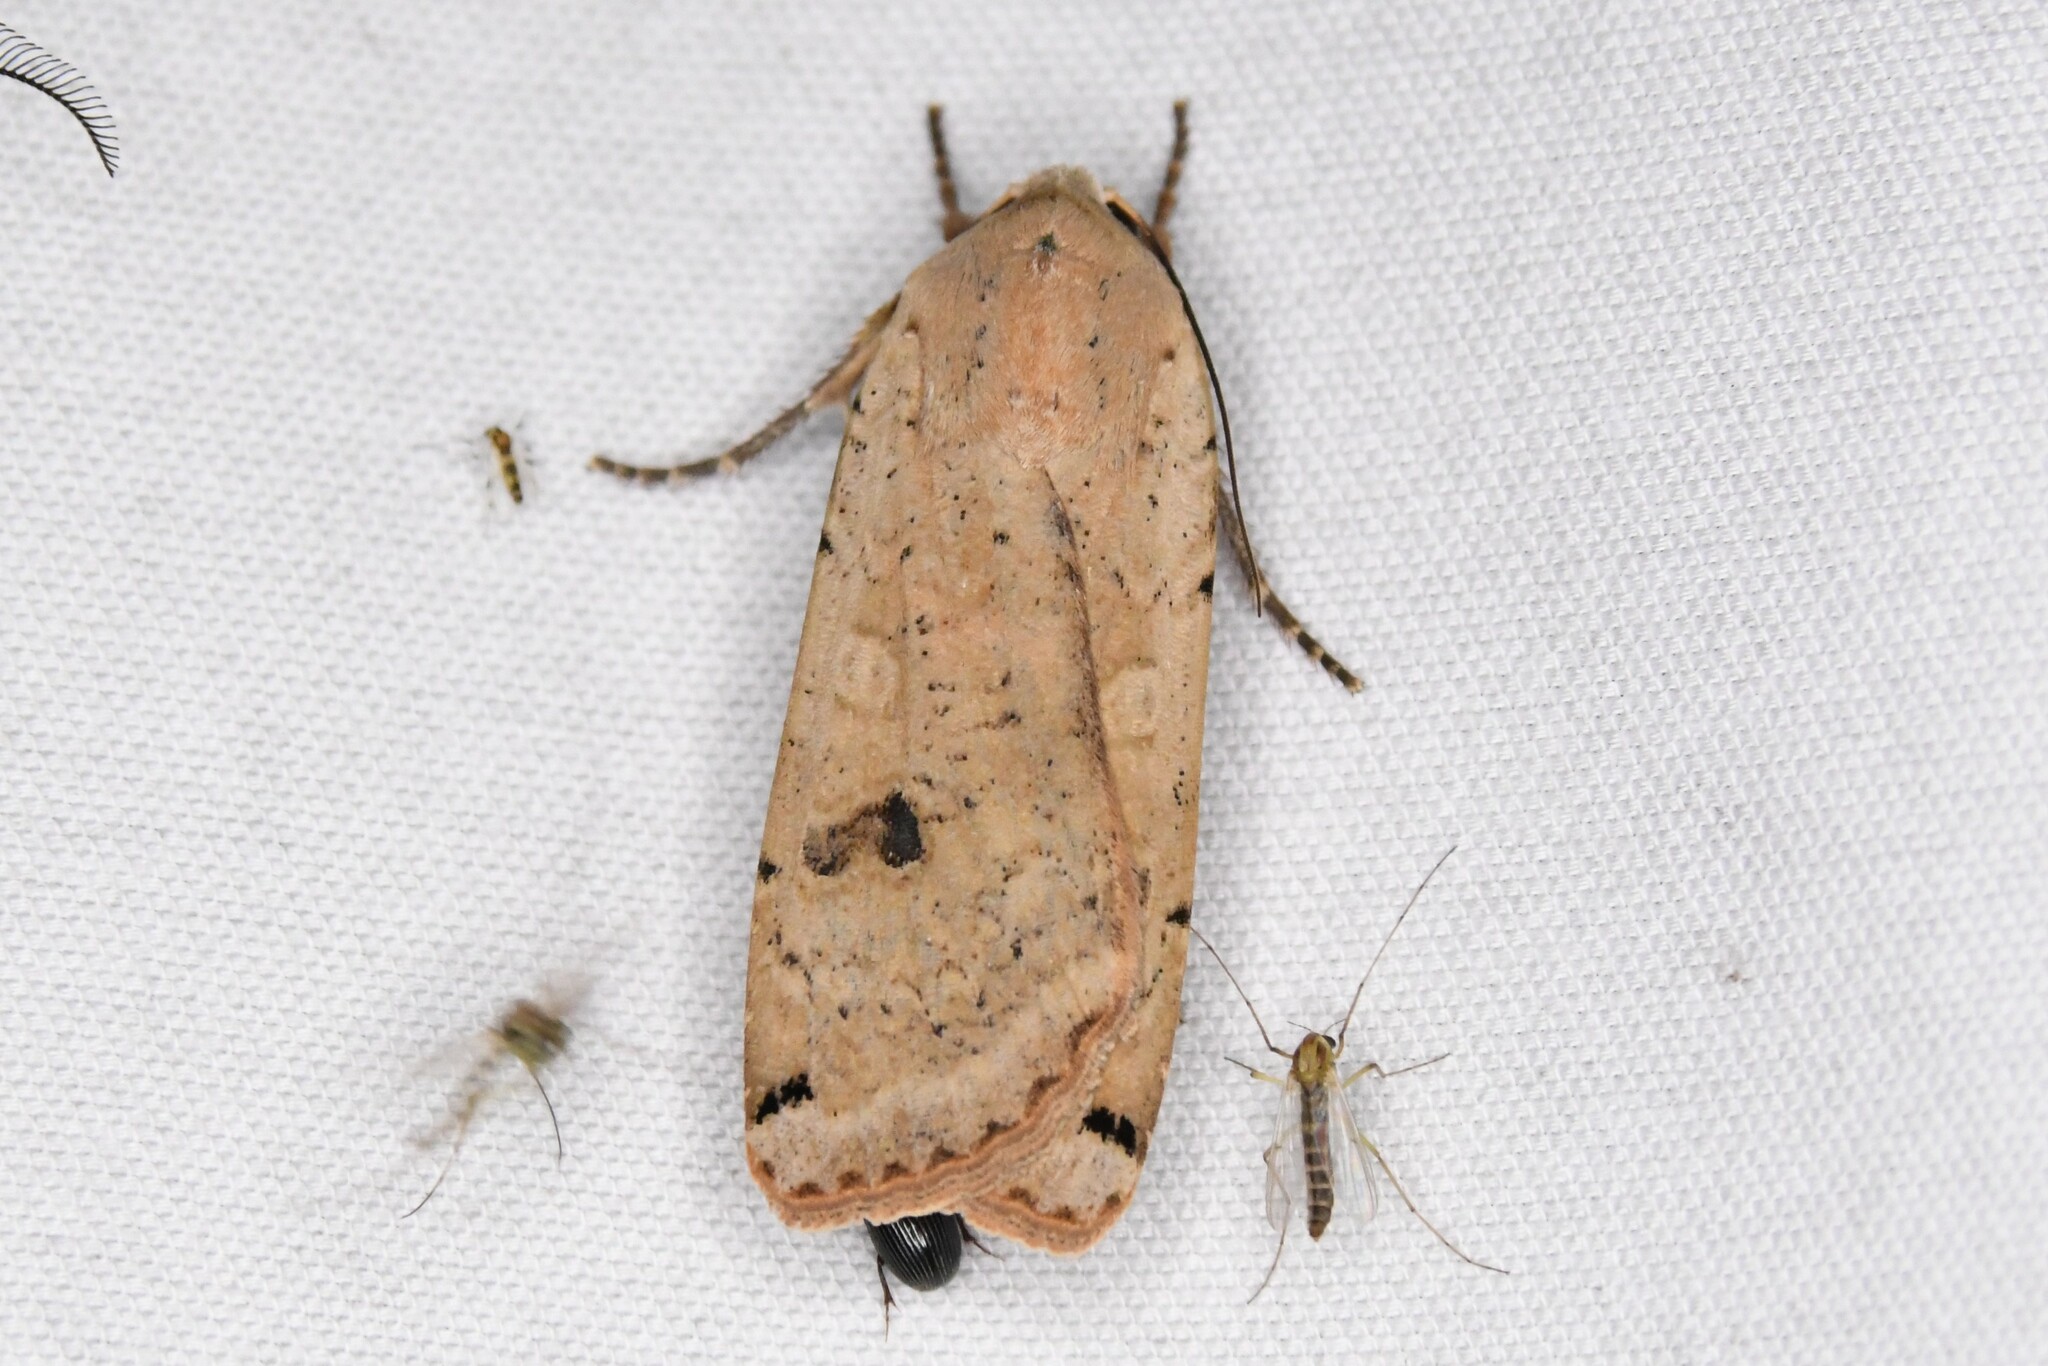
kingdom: Animalia
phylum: Arthropoda
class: Insecta
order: Lepidoptera
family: Noctuidae
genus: Noctua
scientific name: Noctua pronuba
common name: Large yellow underwing
